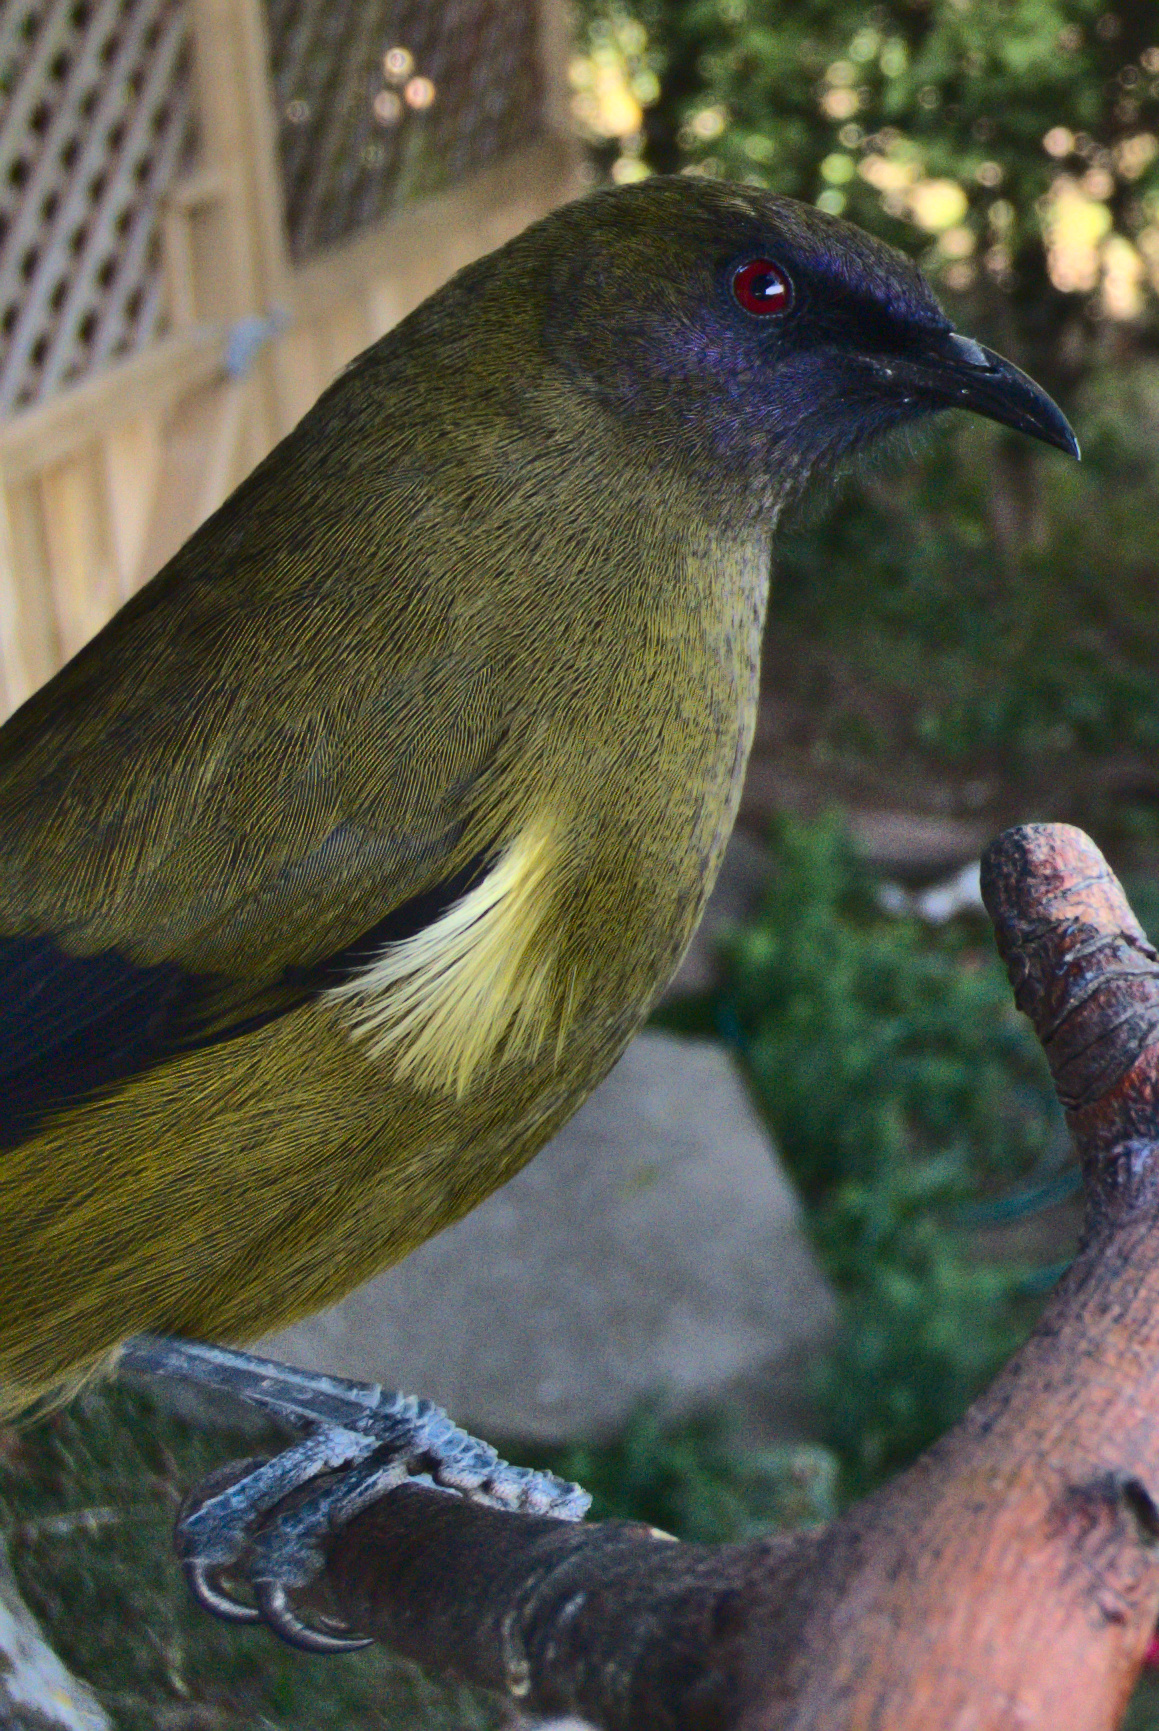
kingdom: Animalia
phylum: Chordata
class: Aves
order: Passeriformes
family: Meliphagidae
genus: Anthornis
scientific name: Anthornis melanura
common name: New zealand bellbird
